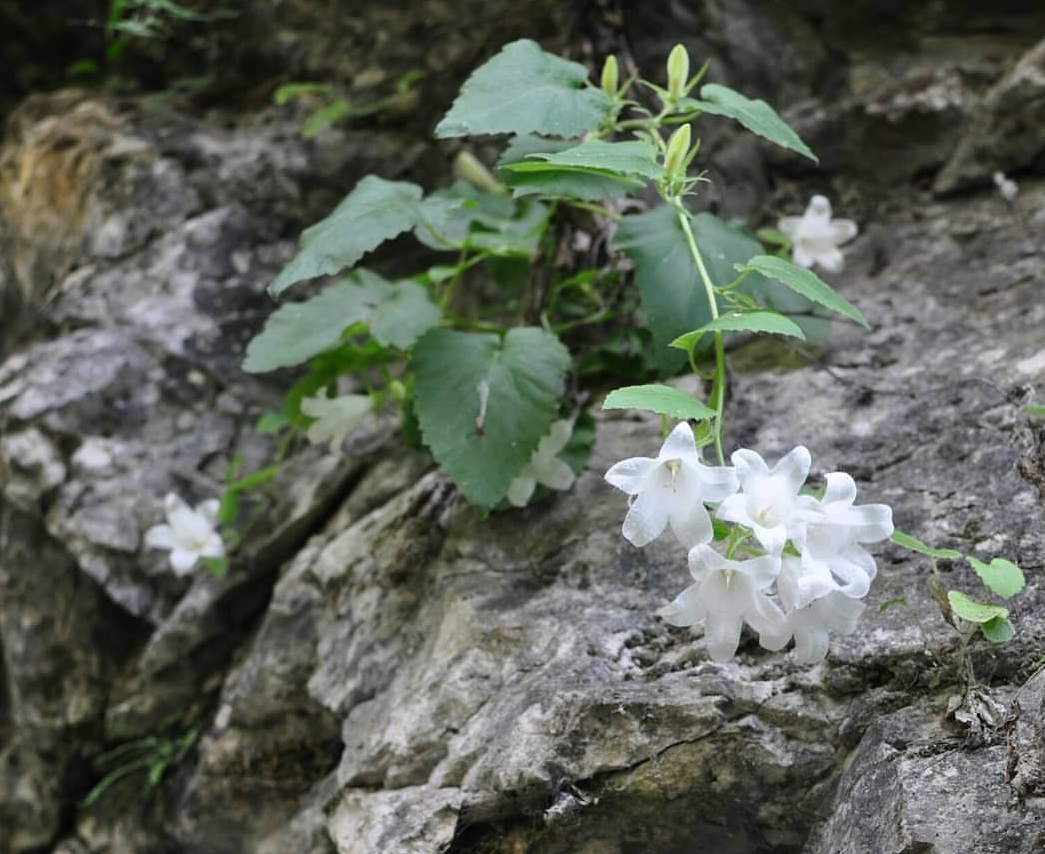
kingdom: Plantae
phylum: Tracheophyta
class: Magnoliopsida
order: Asterales
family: Campanulaceae
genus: Campanula
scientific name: Campanula pendula
